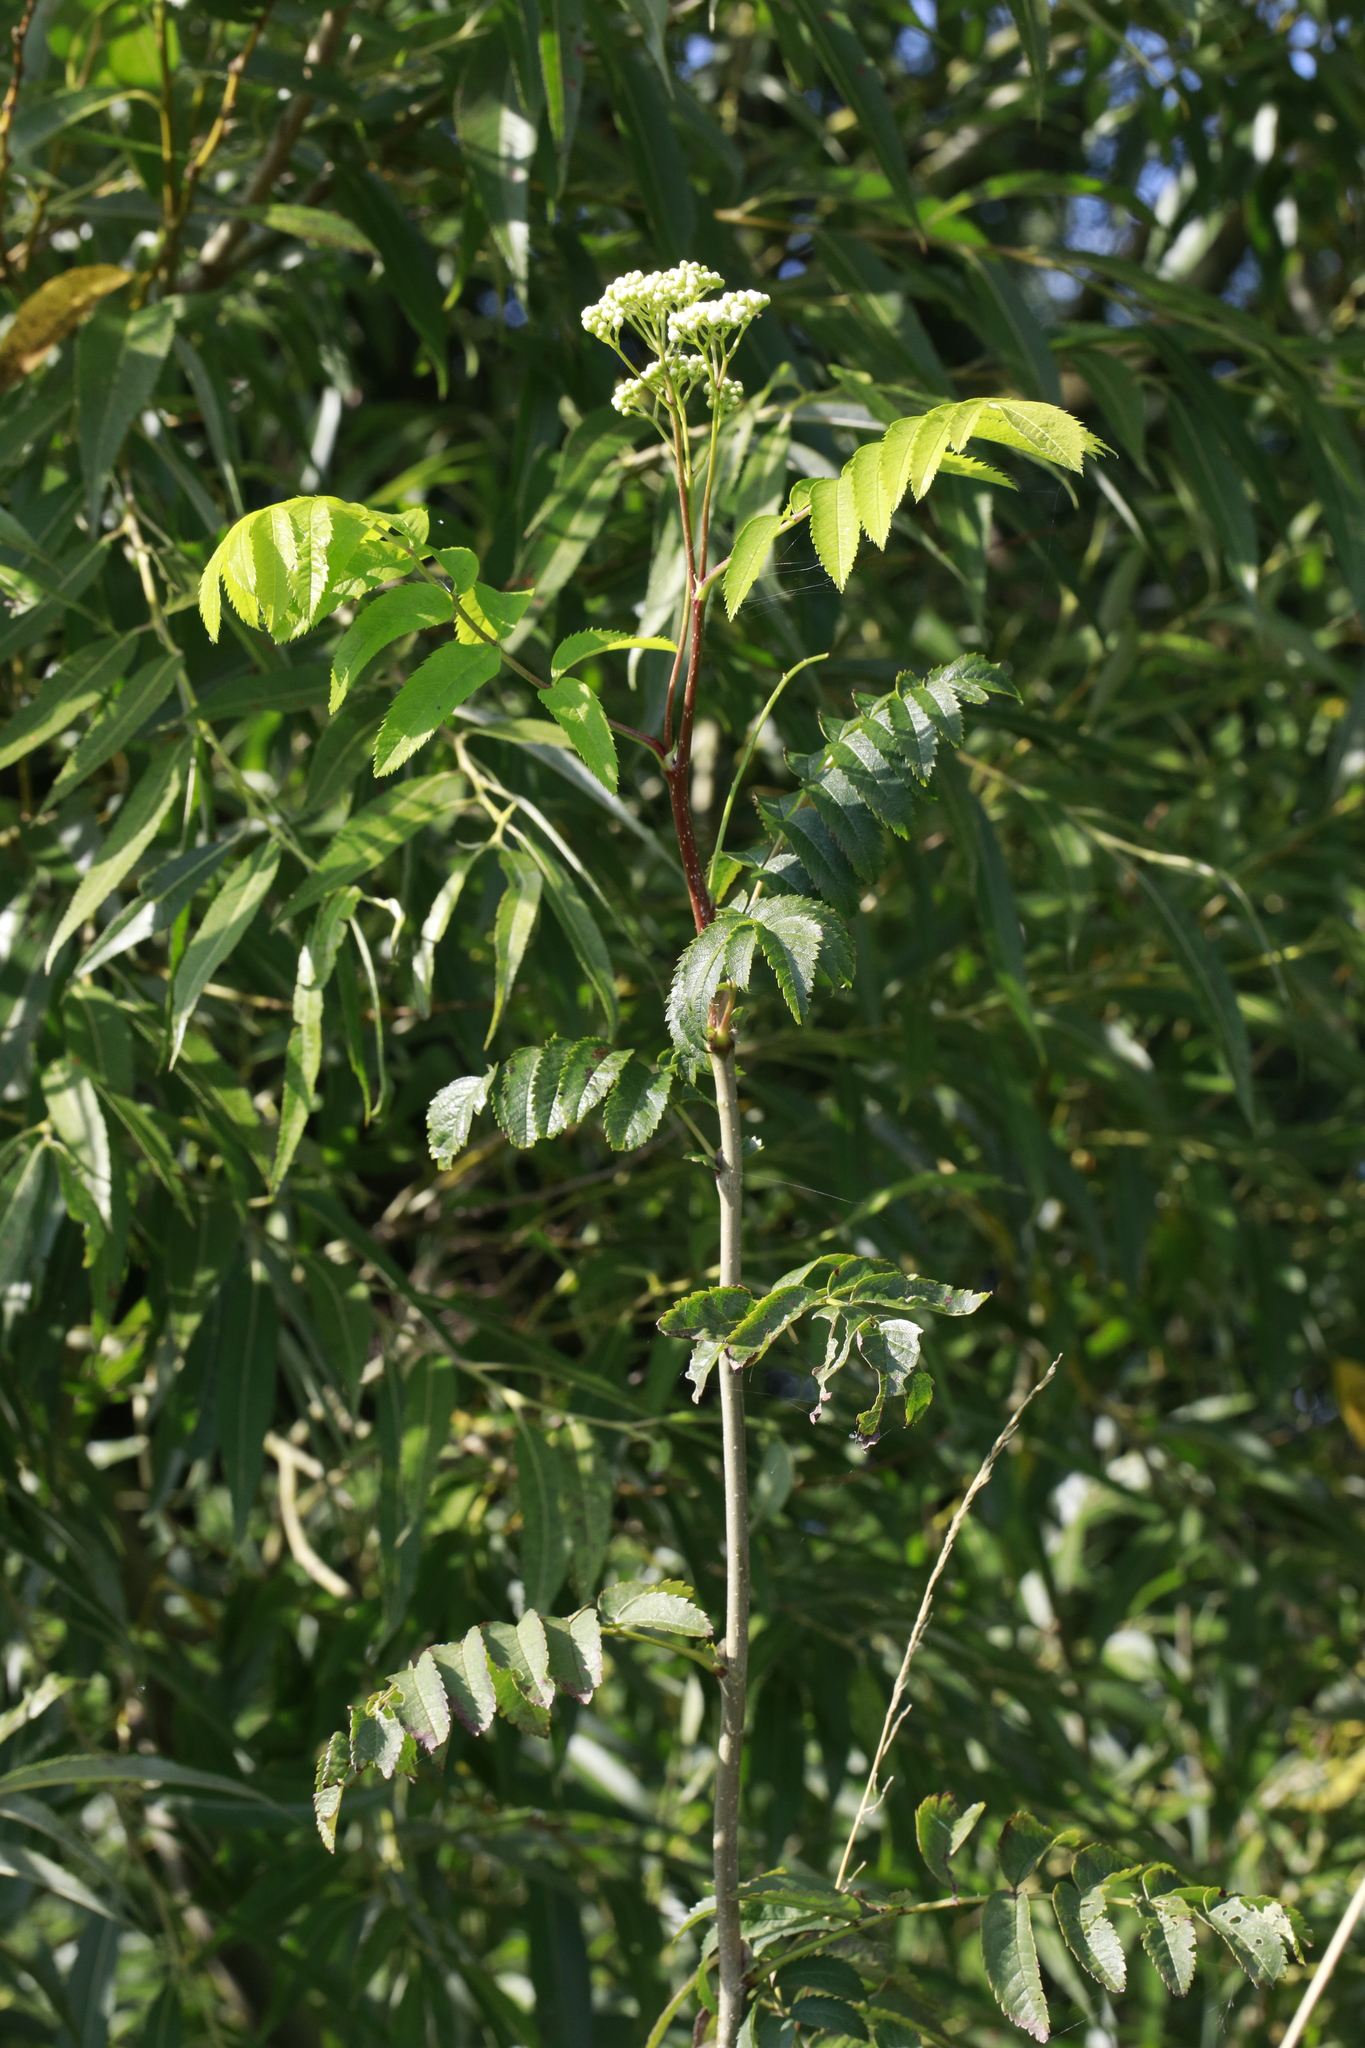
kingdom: Plantae
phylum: Tracheophyta
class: Magnoliopsida
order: Rosales
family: Rosaceae
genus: Sorbus
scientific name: Sorbus aucuparia
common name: Rowan
